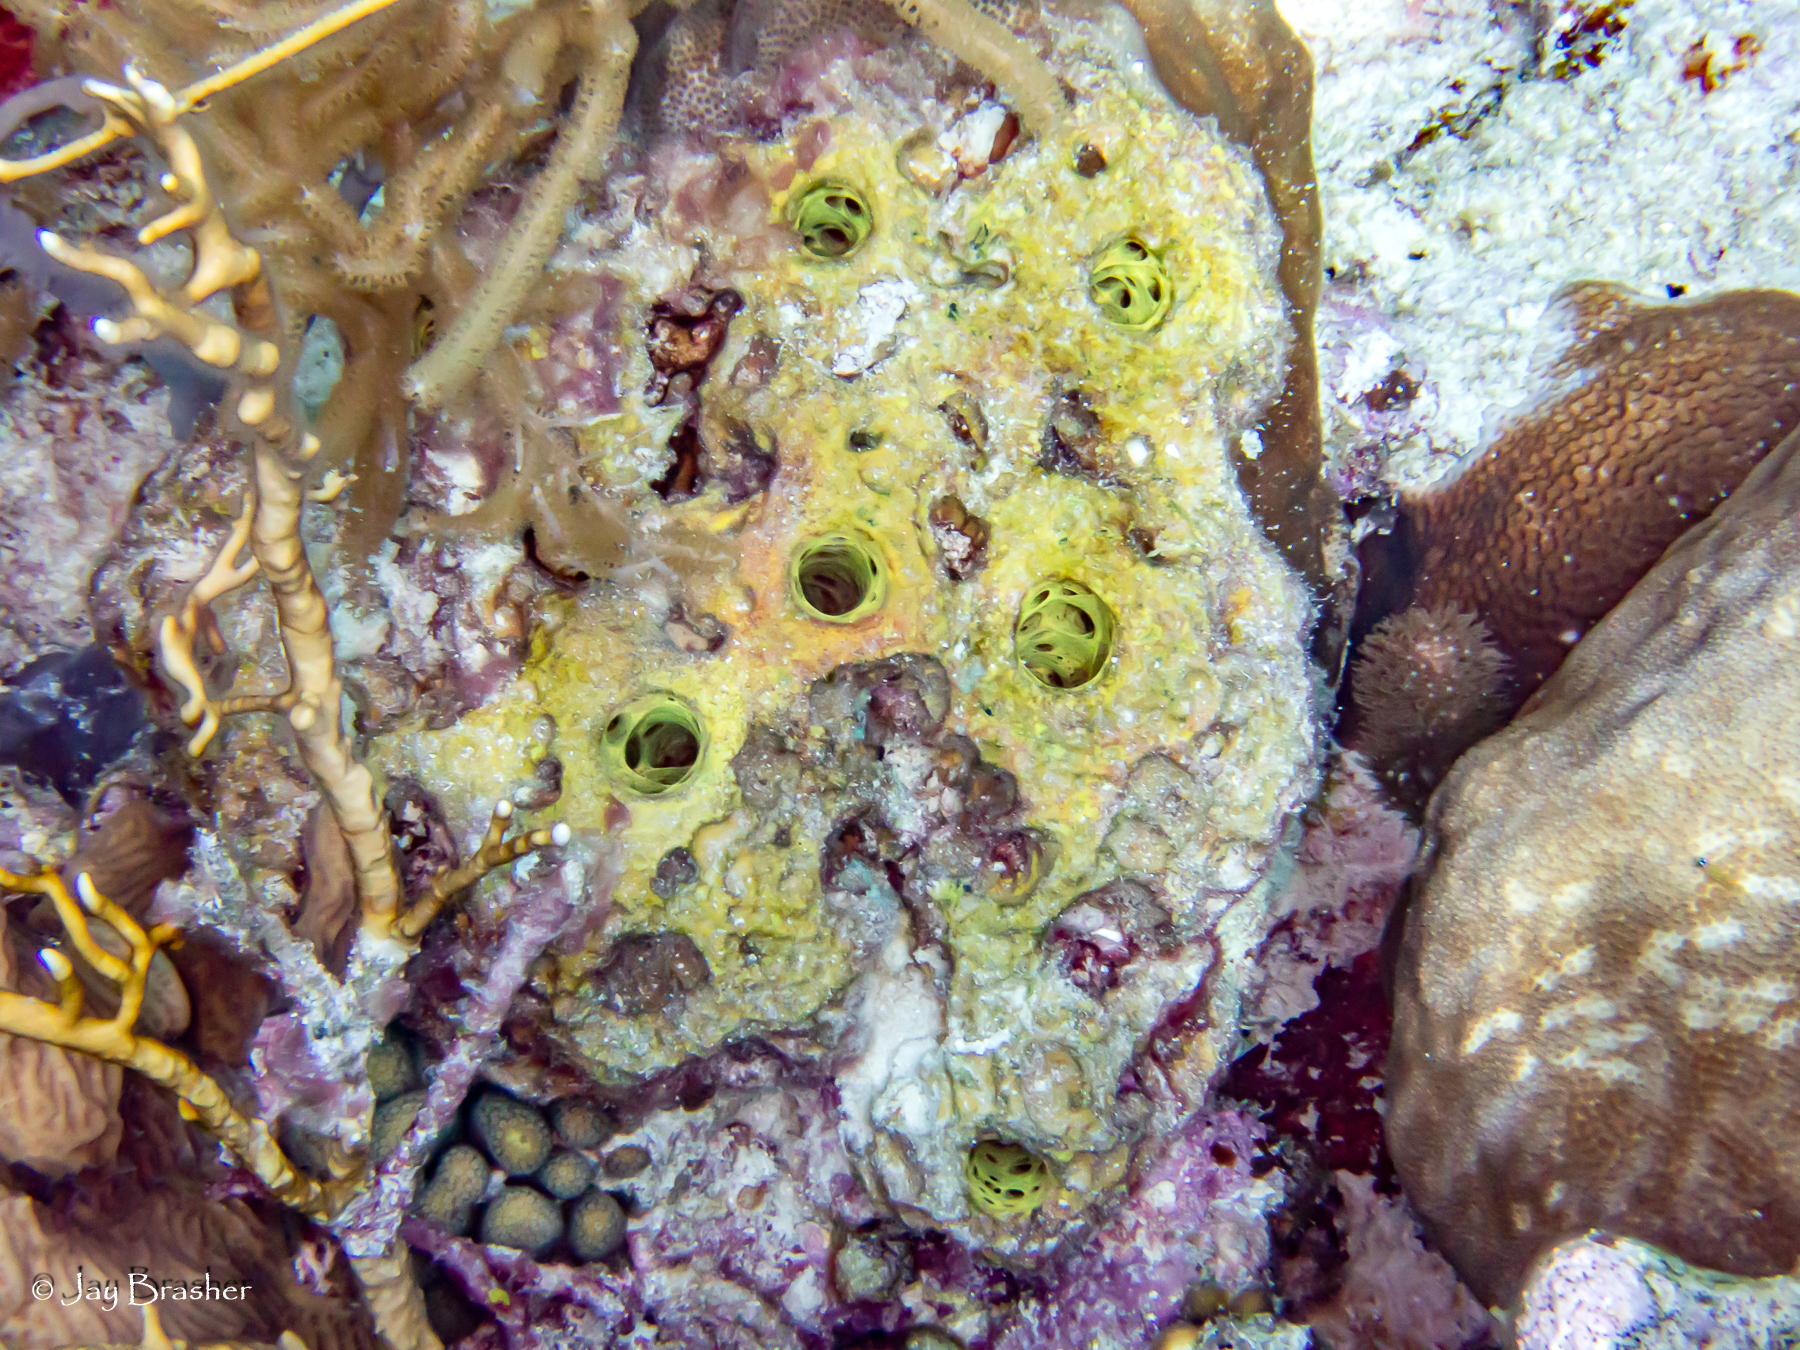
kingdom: Animalia
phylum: Porifera
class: Demospongiae
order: Verongiida
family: Aplysinidae
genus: Verongula
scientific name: Verongula rigida
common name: Pitted sponge
